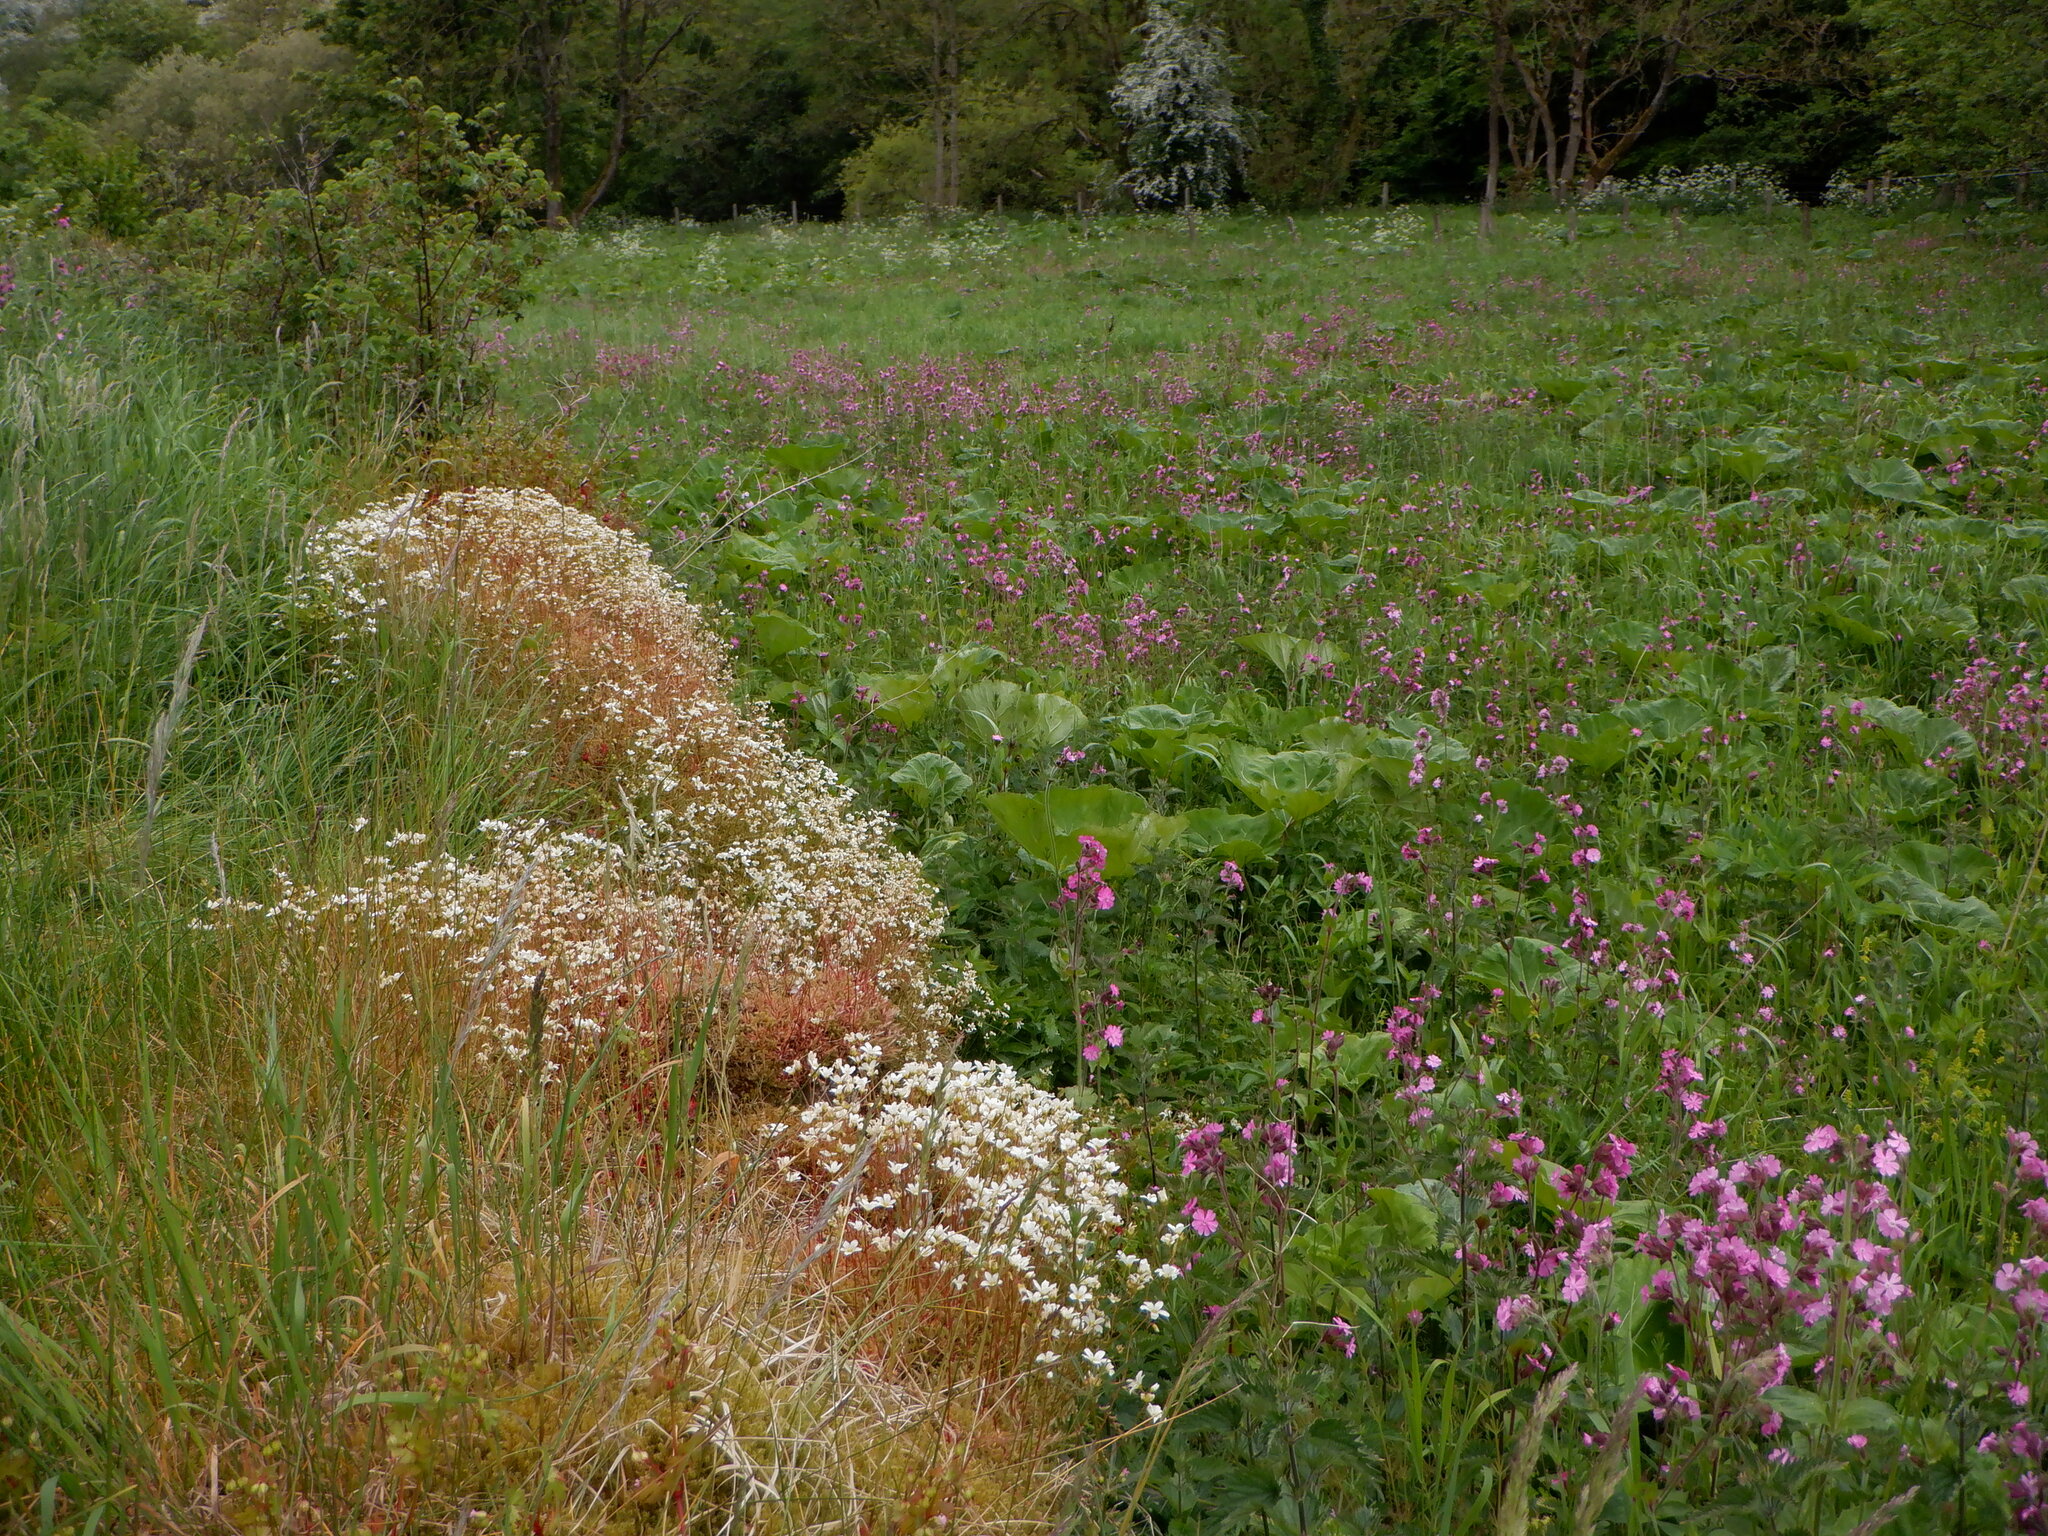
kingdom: Plantae
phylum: Tracheophyta
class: Magnoliopsida
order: Saxifragales
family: Saxifragaceae
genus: Saxifraga
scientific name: Saxifraga hypnoides
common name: Mossy saxifrage
